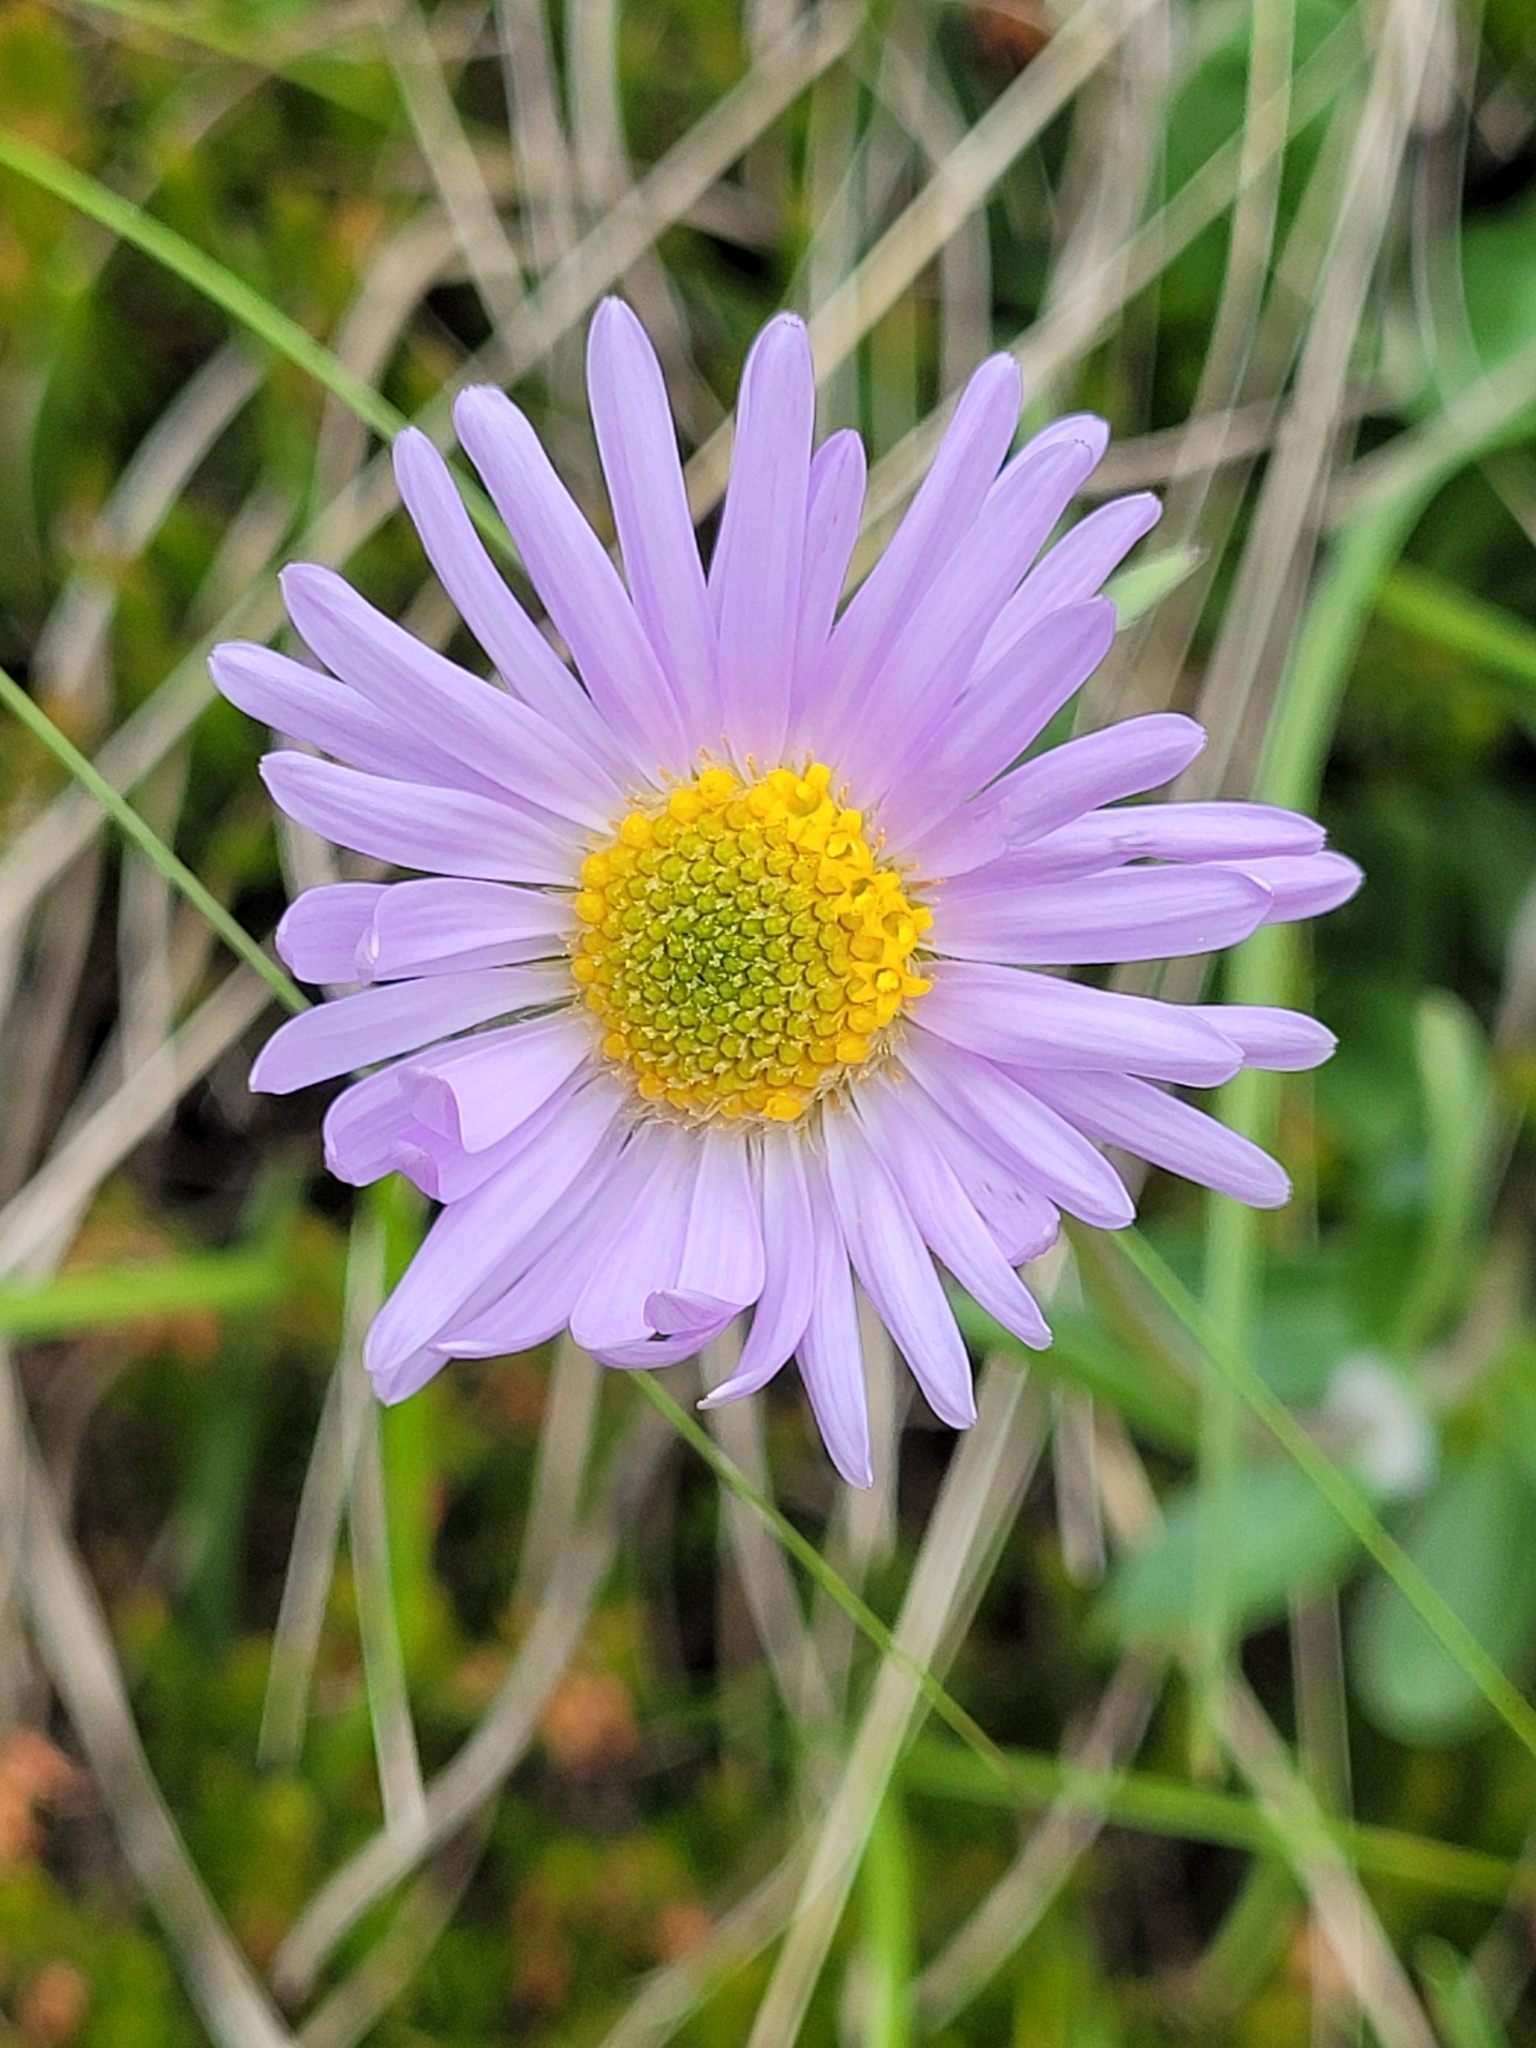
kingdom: Plantae
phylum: Tracheophyta
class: Magnoliopsida
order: Asterales
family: Asteraceae
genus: Aster
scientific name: Aster alpinus
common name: Alpine aster
